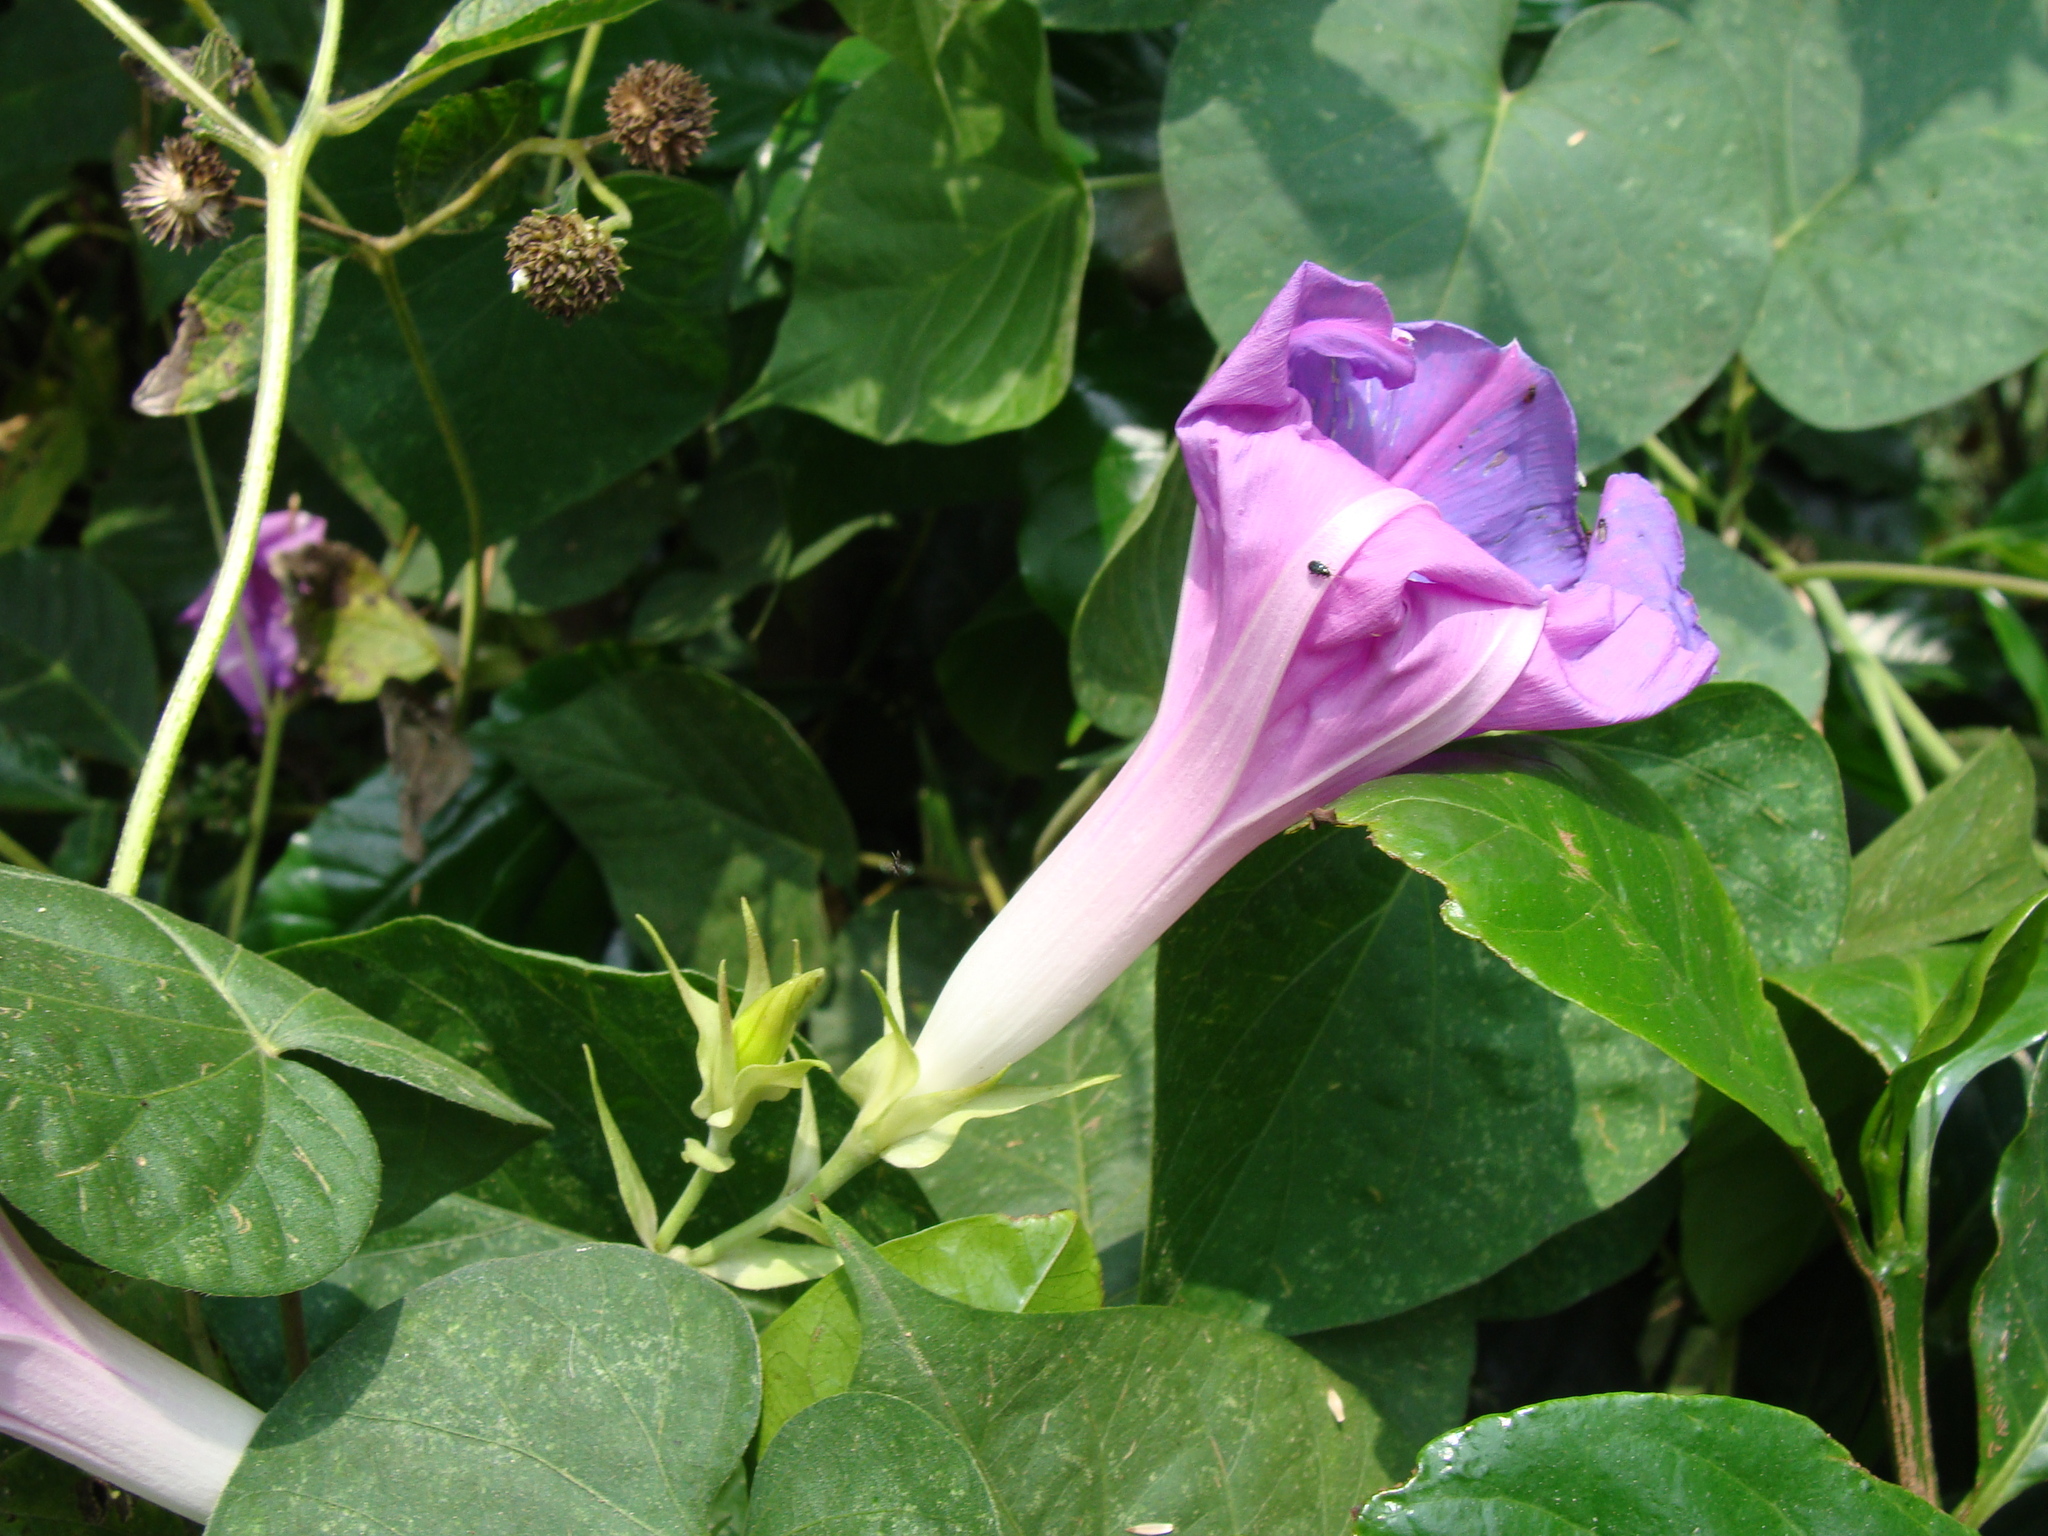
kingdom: Plantae
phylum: Tracheophyta
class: Magnoliopsida
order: Solanales
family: Convolvulaceae
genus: Ipomoea
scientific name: Ipomoea indica
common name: Blue dawnflower
